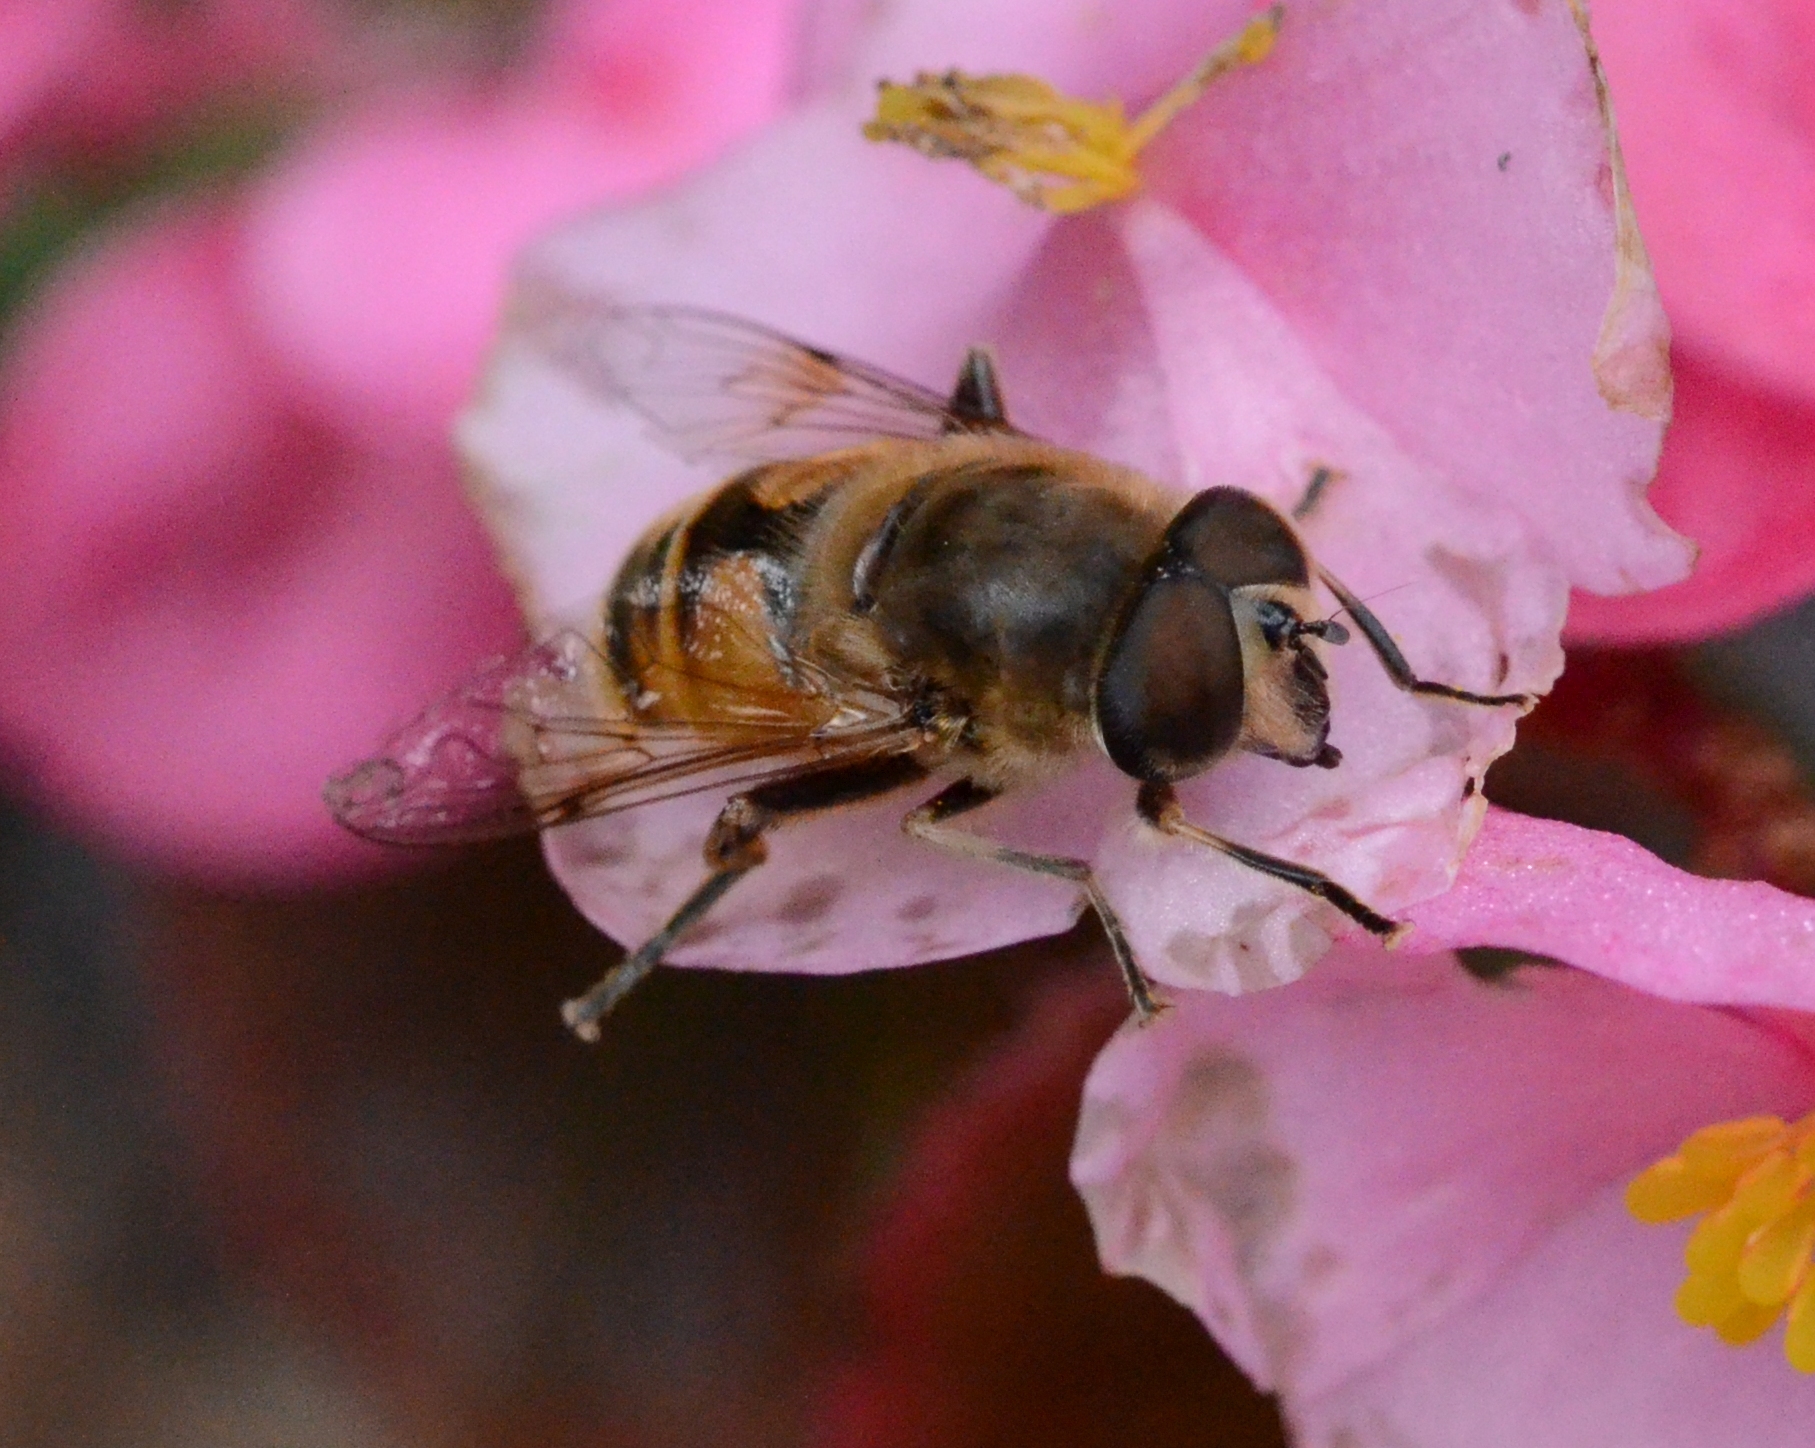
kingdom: Animalia
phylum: Arthropoda
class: Insecta
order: Diptera
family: Syrphidae
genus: Eristalis
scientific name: Eristalis tenax
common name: Drone fly
